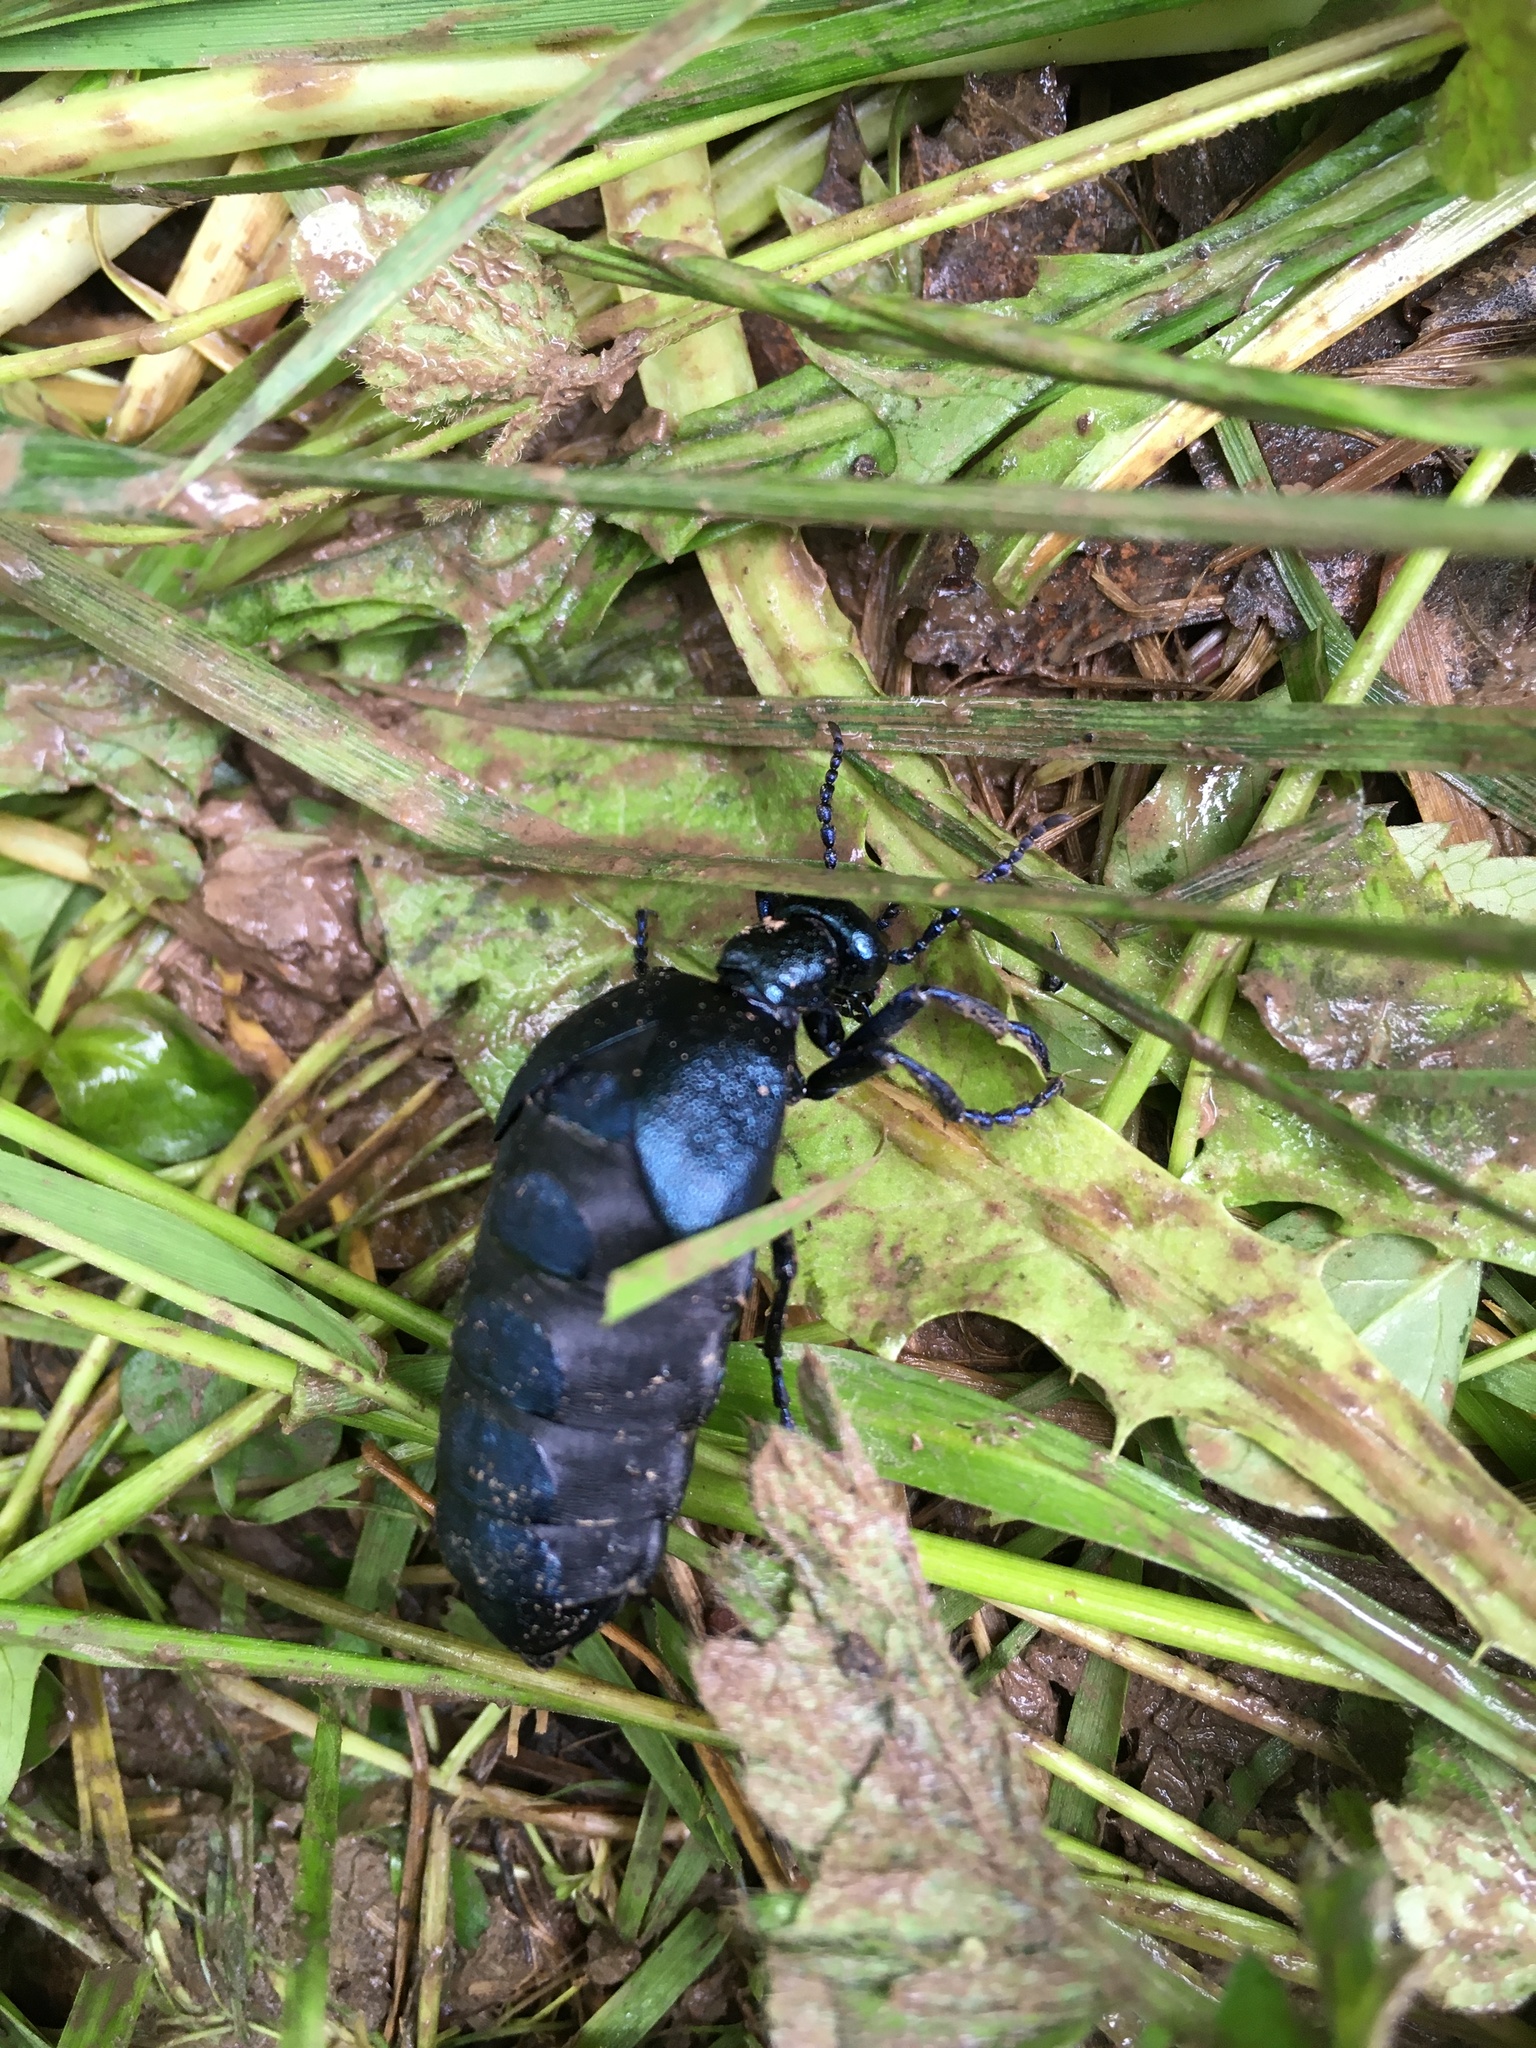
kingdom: Animalia
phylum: Arthropoda
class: Insecta
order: Coleoptera
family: Meloidae
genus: Meloe
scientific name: Meloe violaceus
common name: Violet oil-beetle
